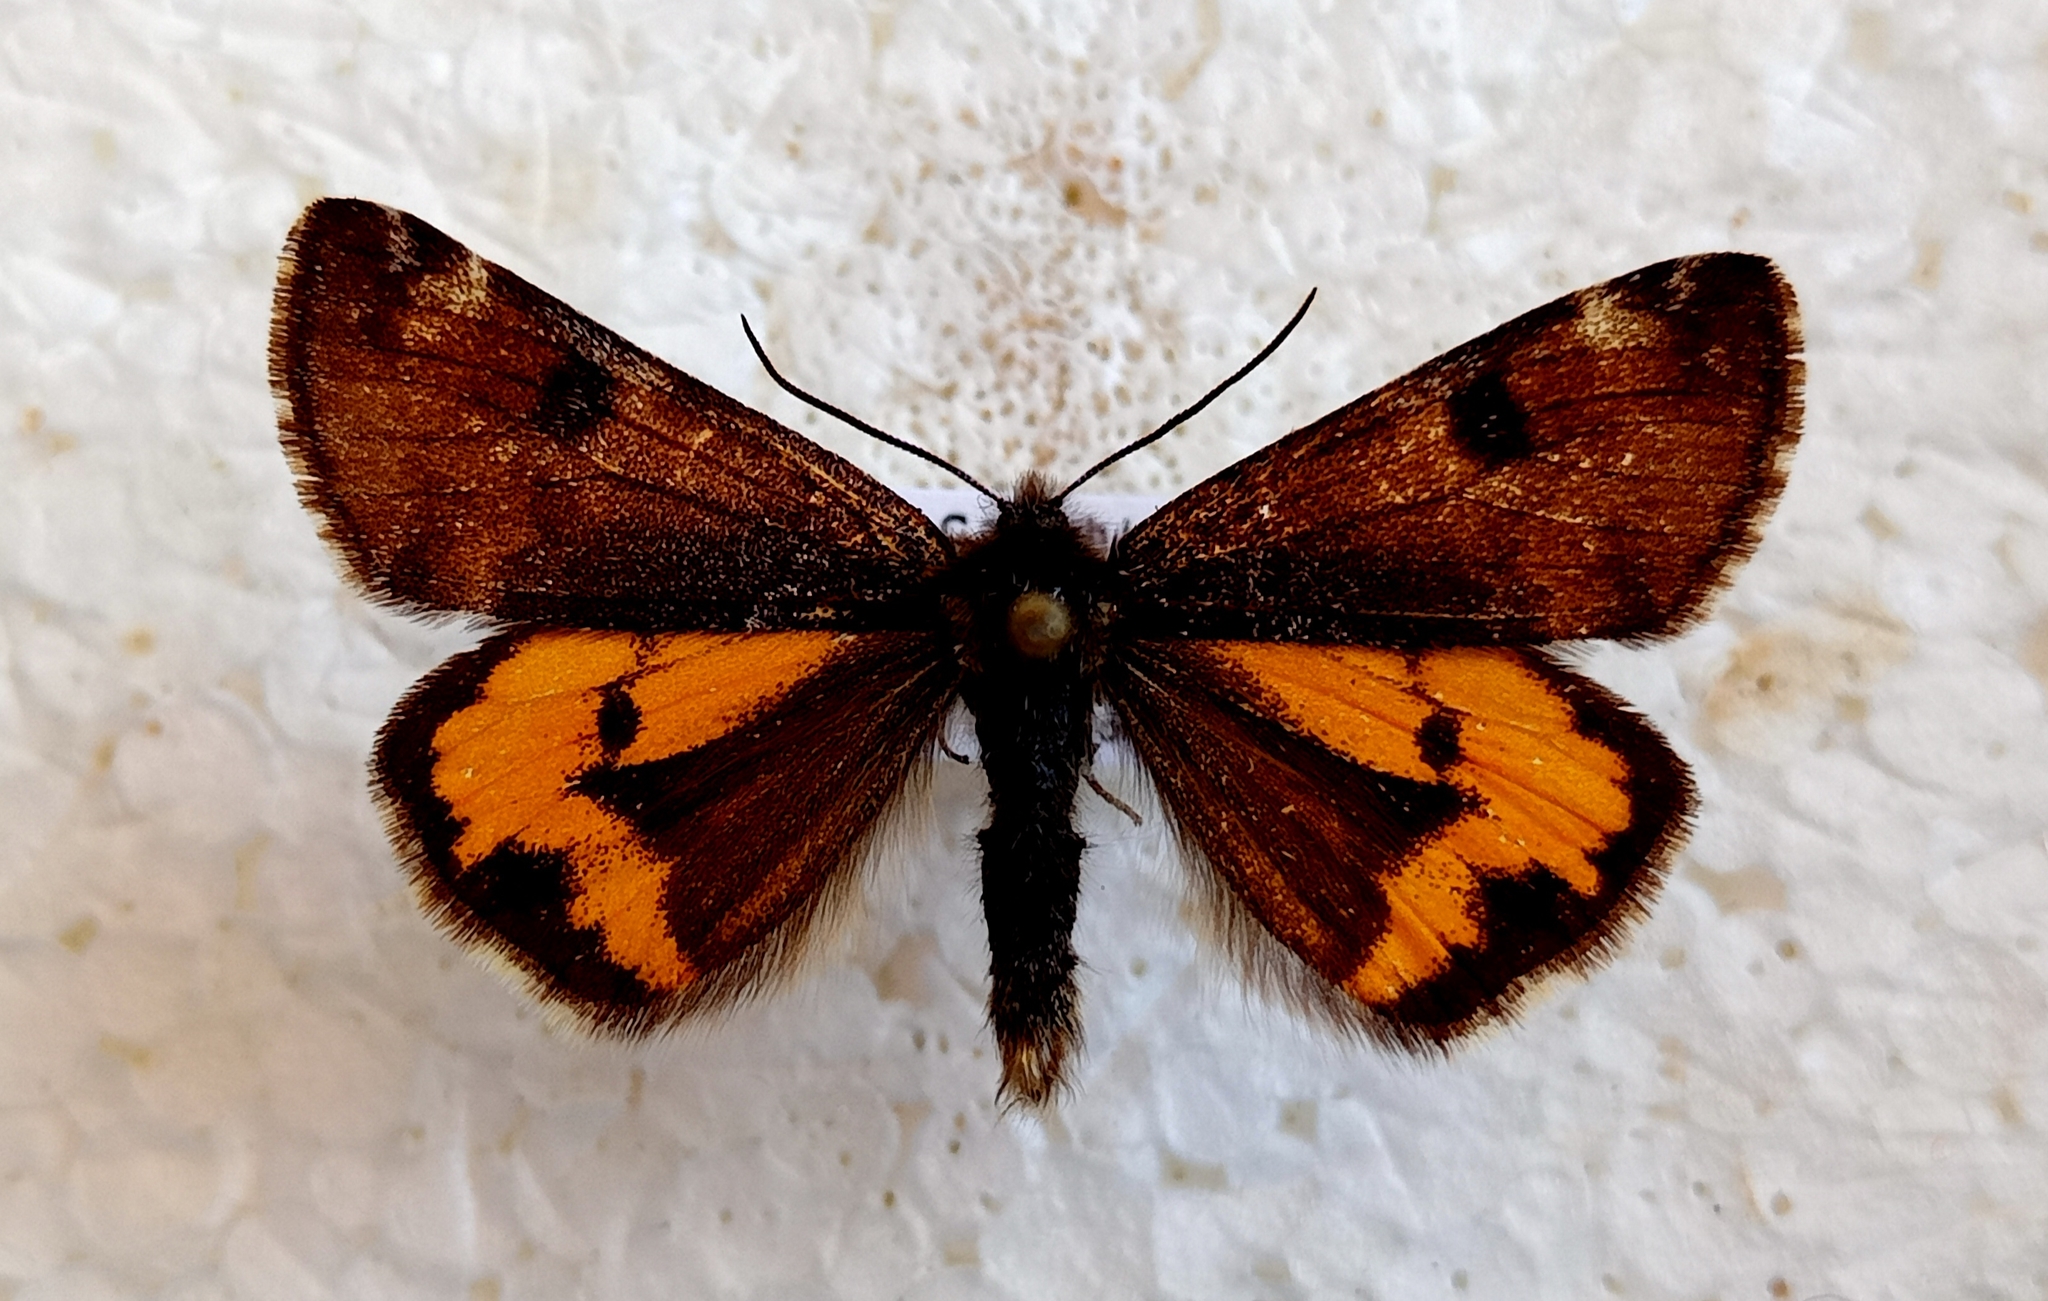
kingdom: Animalia
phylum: Arthropoda
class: Insecta
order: Lepidoptera
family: Geometridae
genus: Archiearis
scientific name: Archiearis parthenias
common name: Orange underwing
